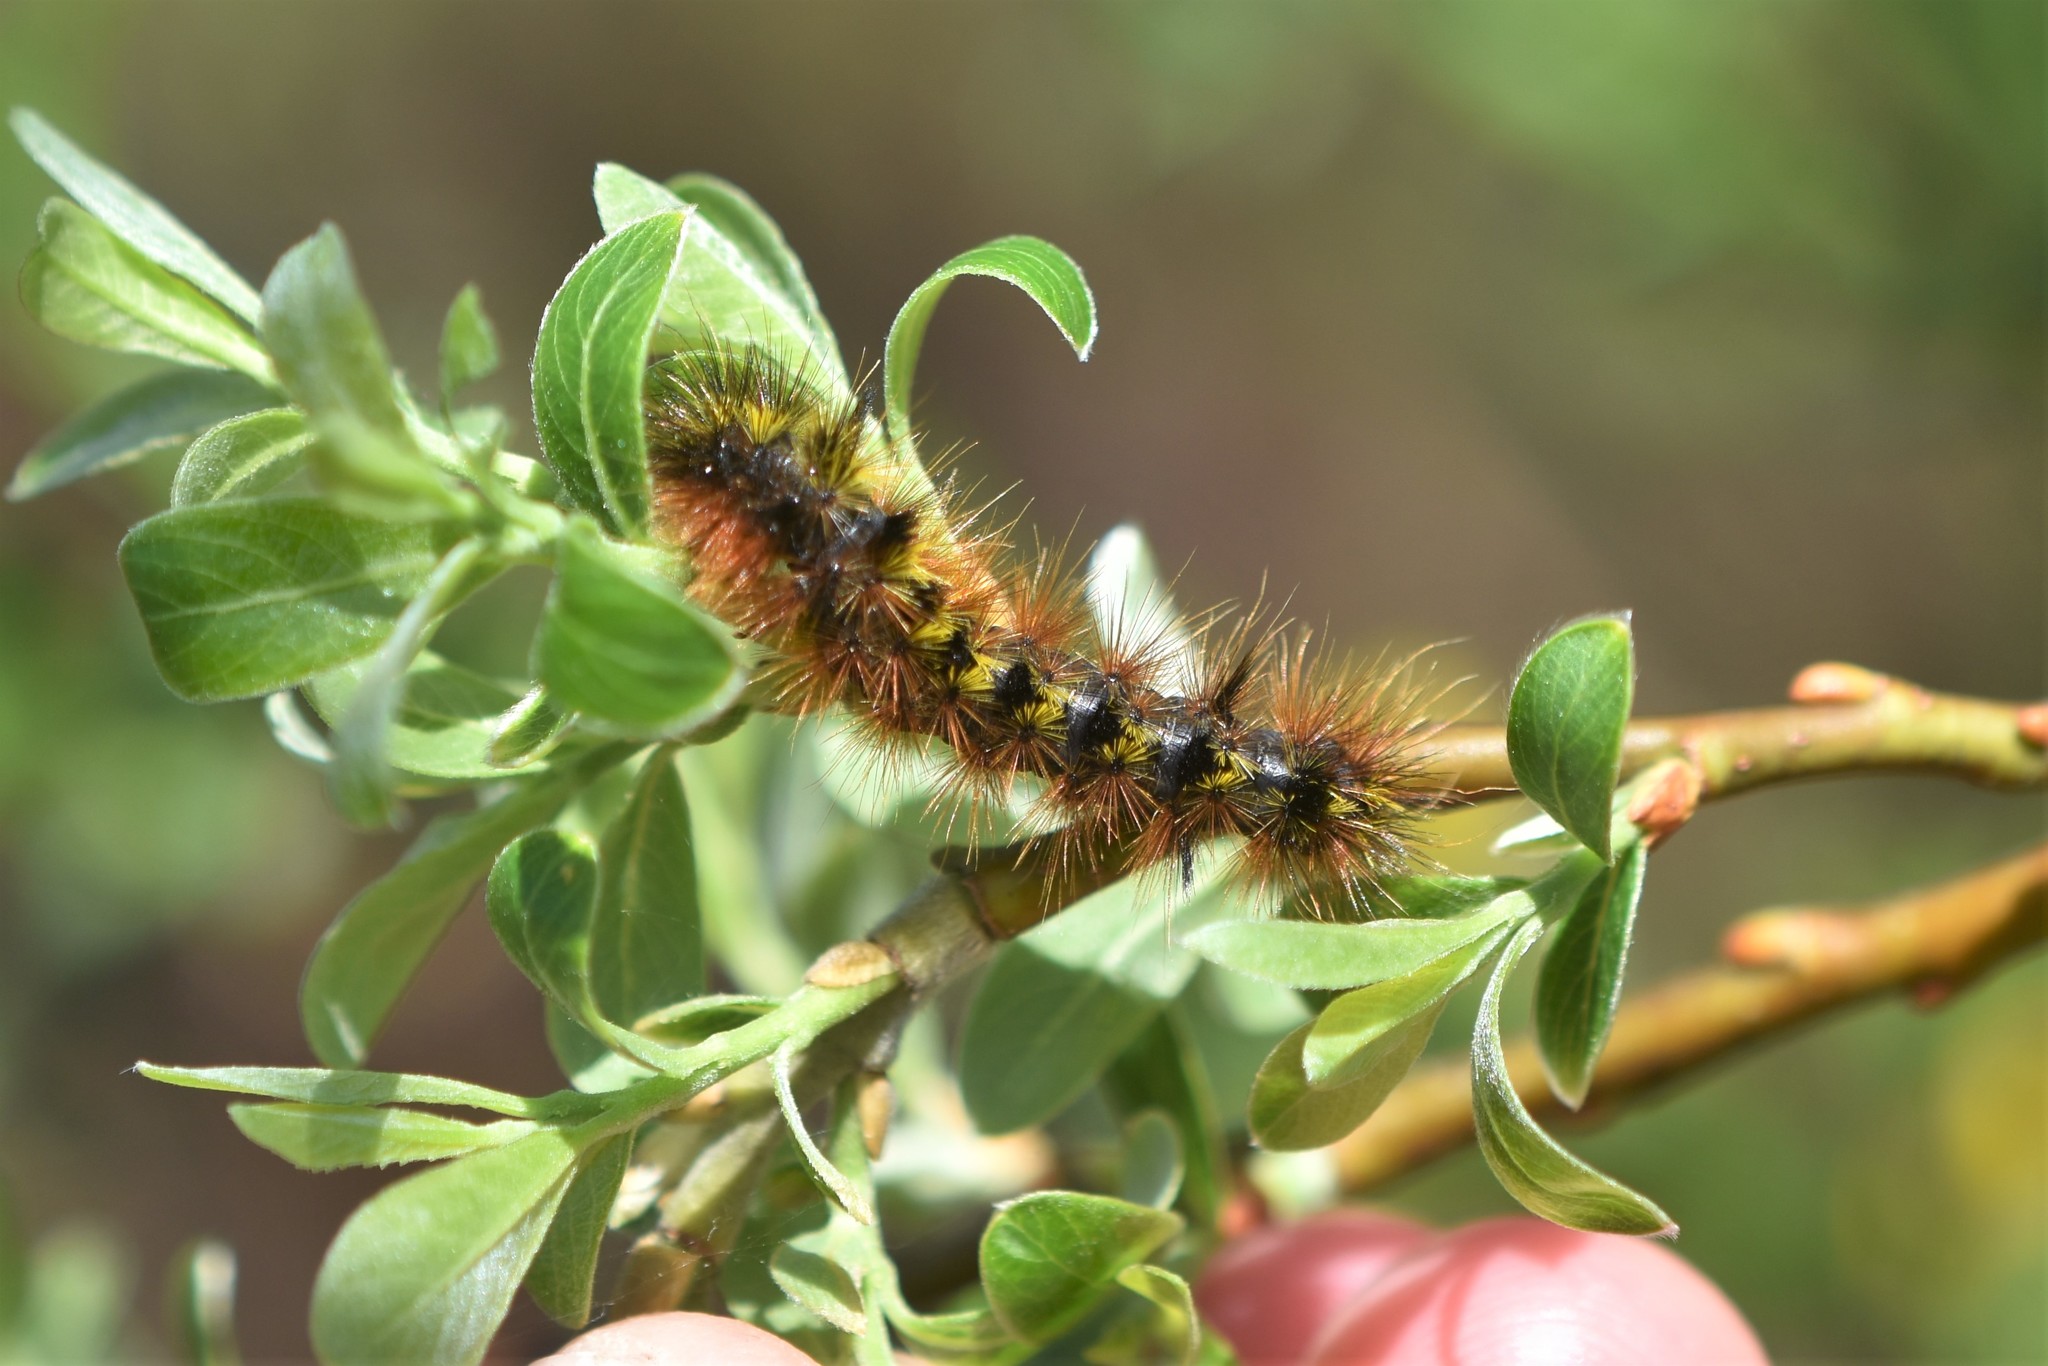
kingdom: Animalia
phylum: Arthropoda
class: Insecta
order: Lepidoptera
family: Erebidae
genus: Lophocampa
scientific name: Lophocampa argentata
